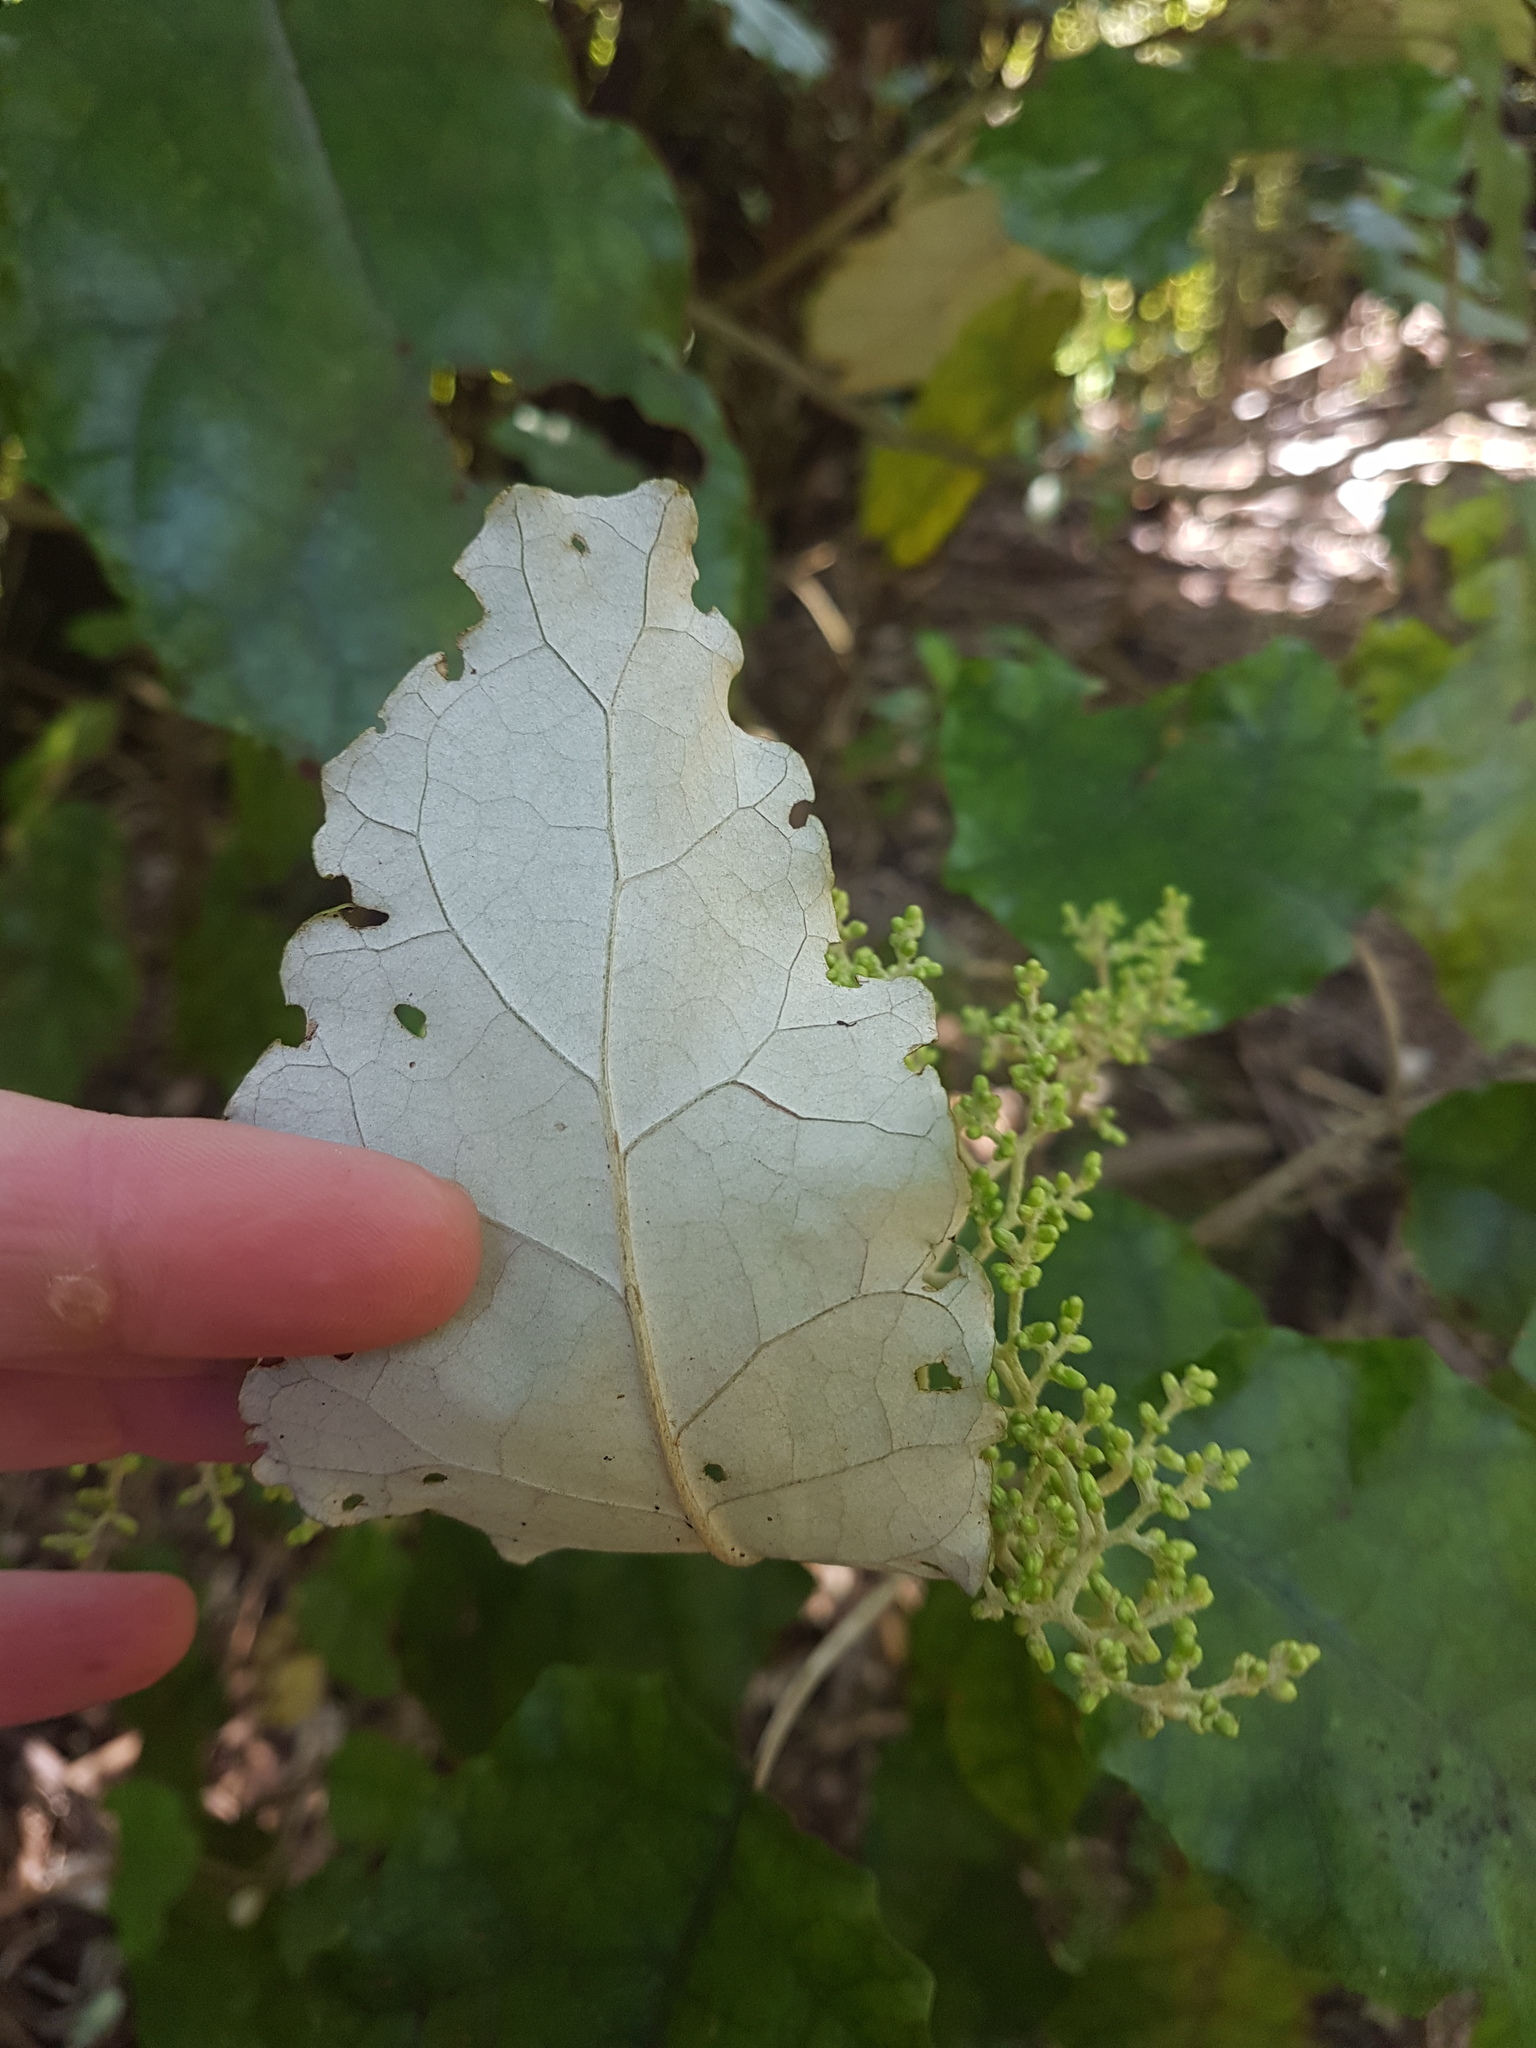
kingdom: Plantae
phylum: Tracheophyta
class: Magnoliopsida
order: Asterales
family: Asteraceae
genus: Brachyglottis
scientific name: Brachyglottis repanda
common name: Hedge ragwort
